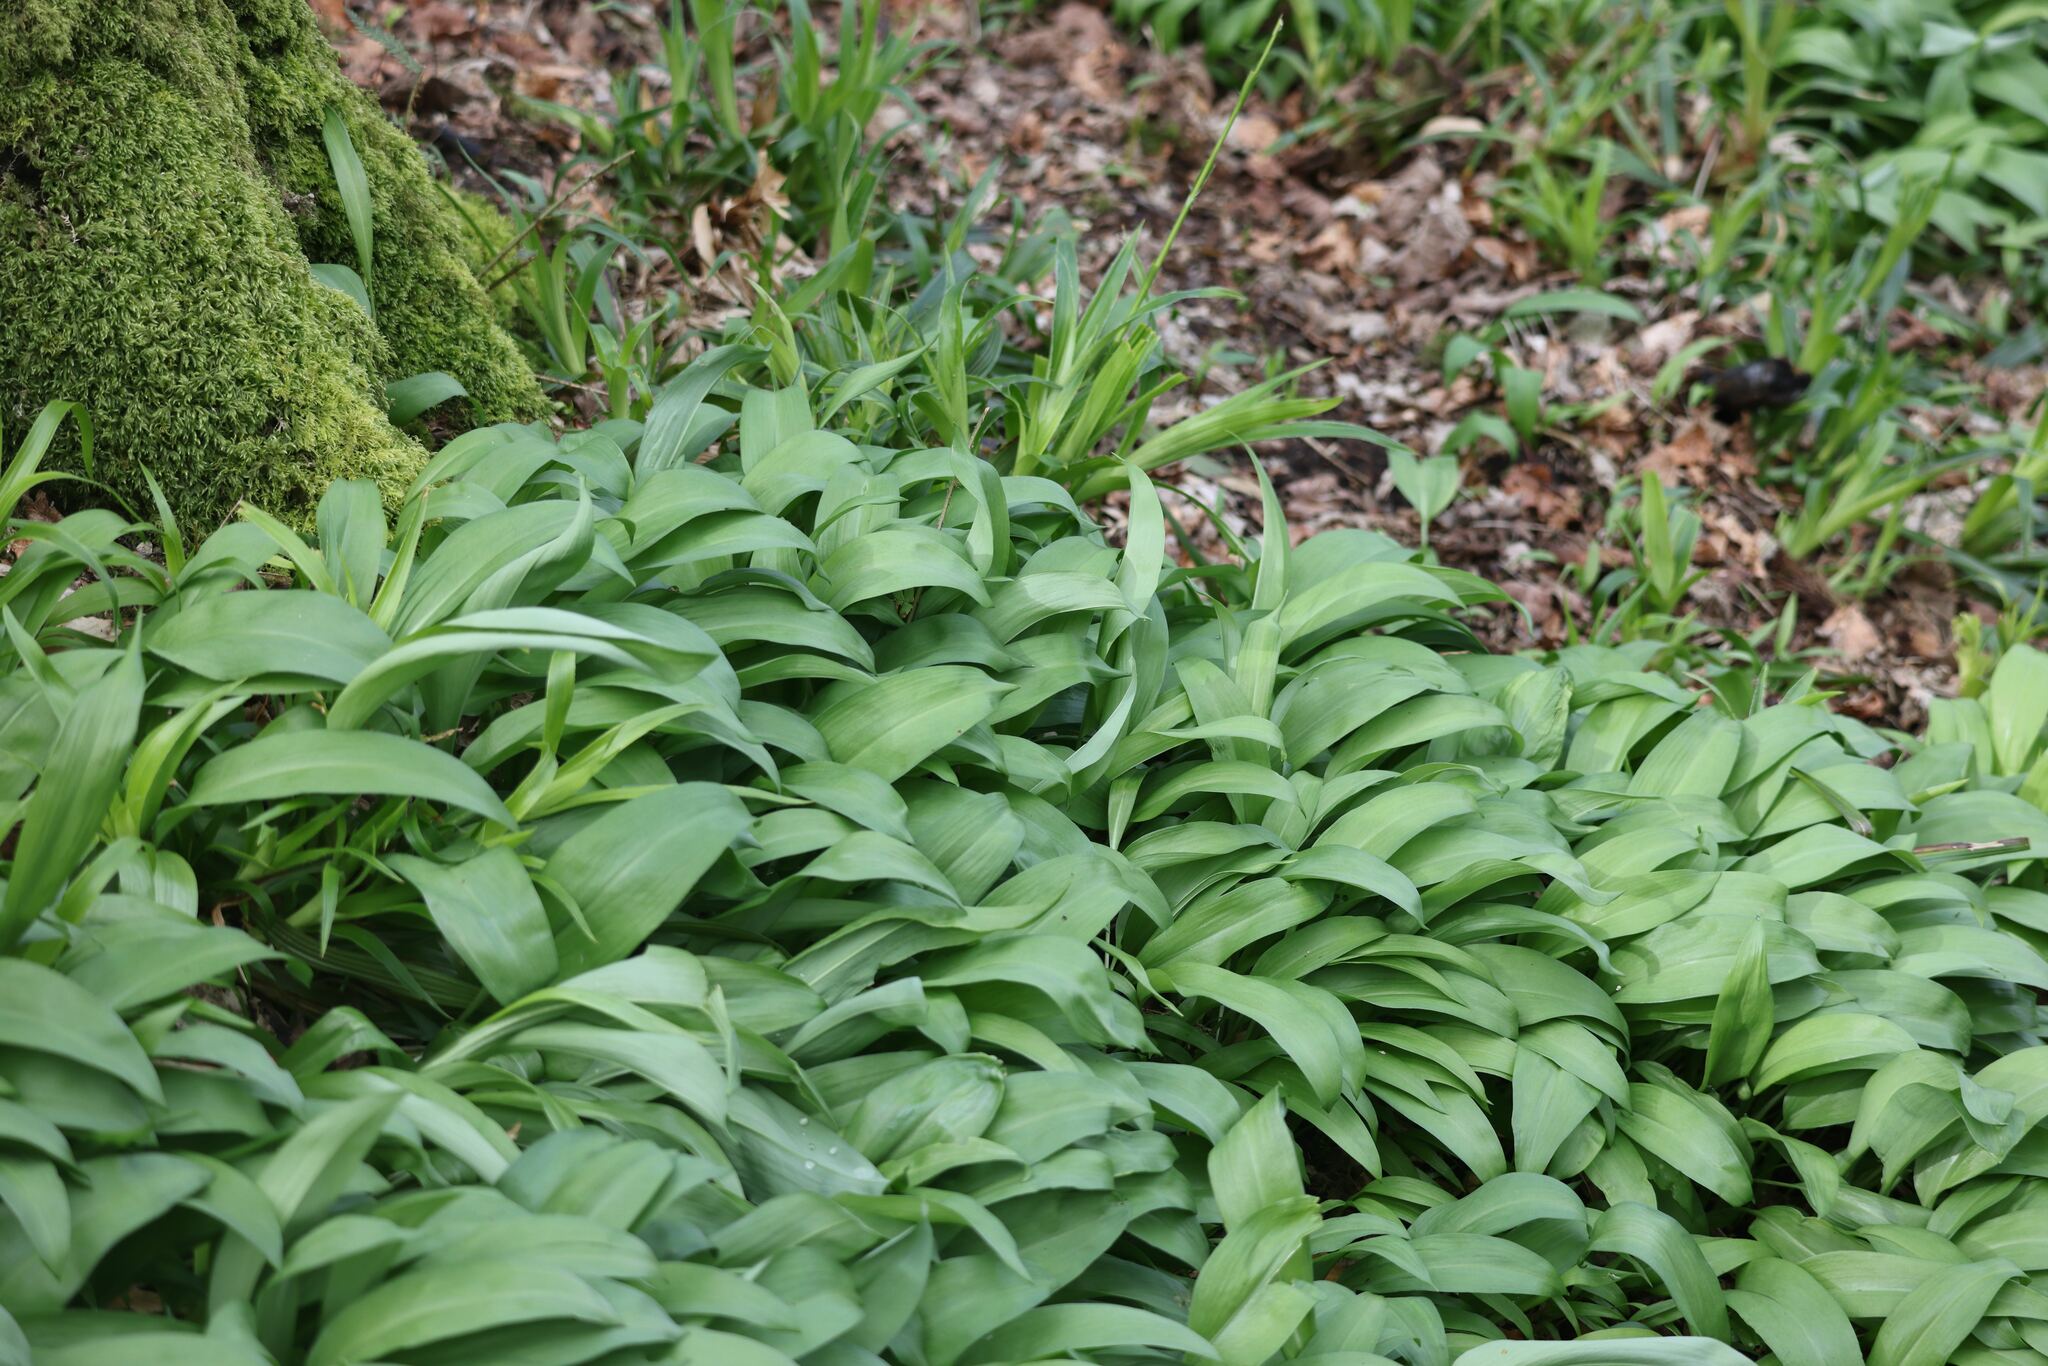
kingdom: Plantae
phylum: Tracheophyta
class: Liliopsida
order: Asparagales
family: Amaryllidaceae
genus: Allium
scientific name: Allium ursinum
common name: Ramsons
